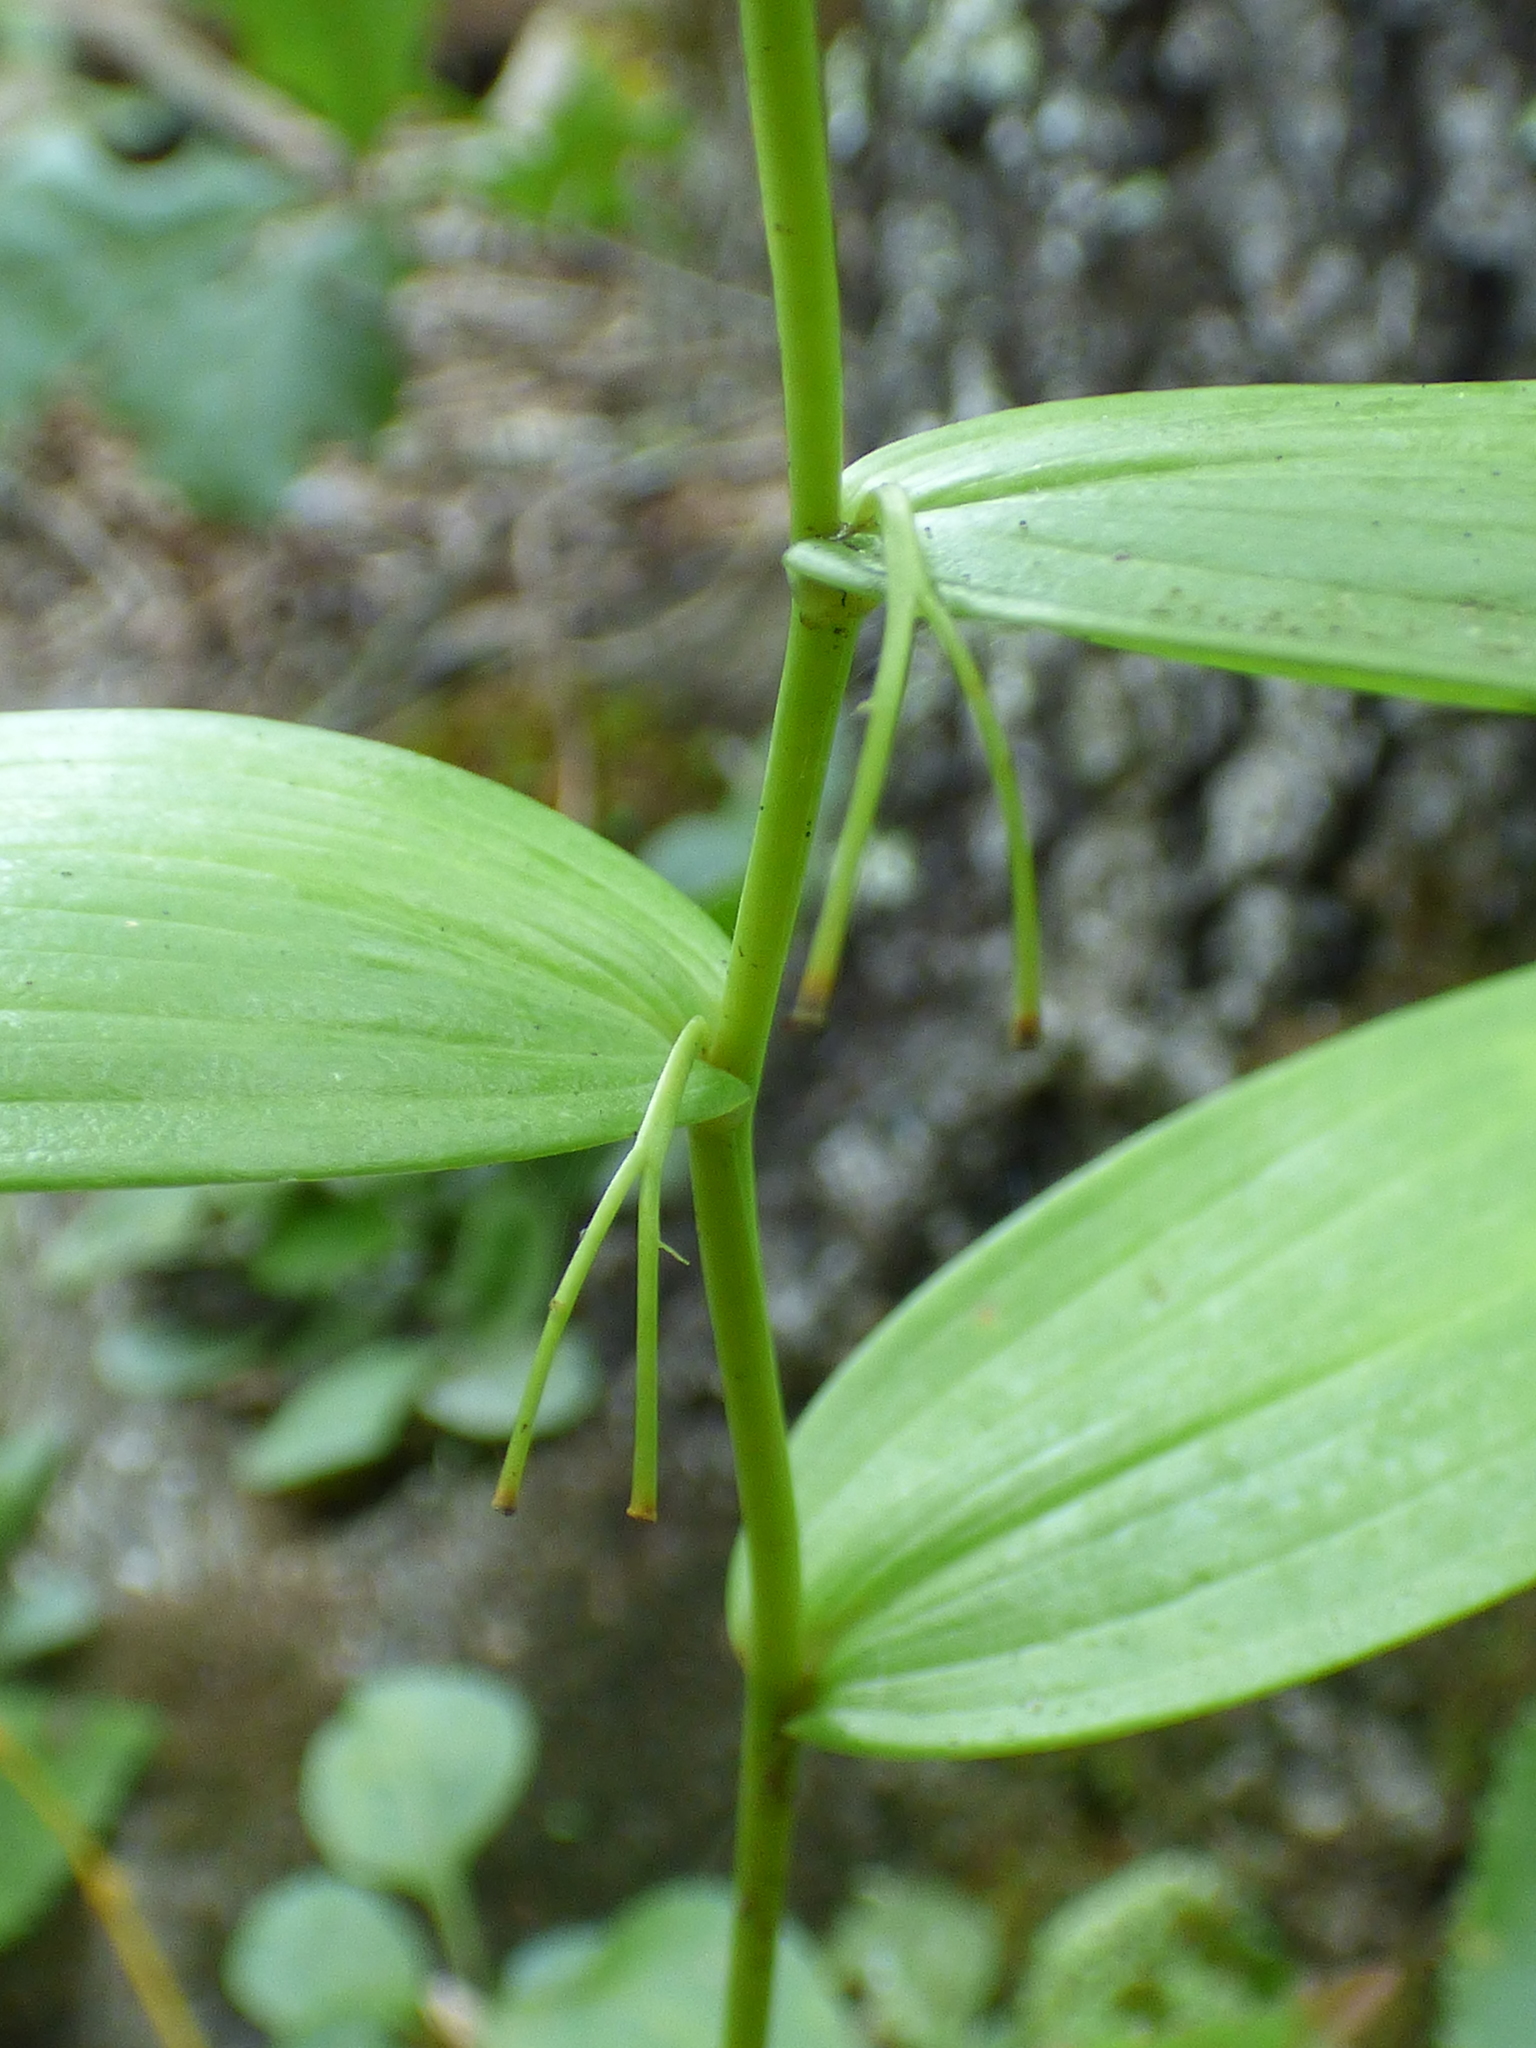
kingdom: Plantae
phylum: Tracheophyta
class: Liliopsida
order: Asparagales
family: Asparagaceae
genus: Polygonatum
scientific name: Polygonatum biflorum
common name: American solomon's-seal
